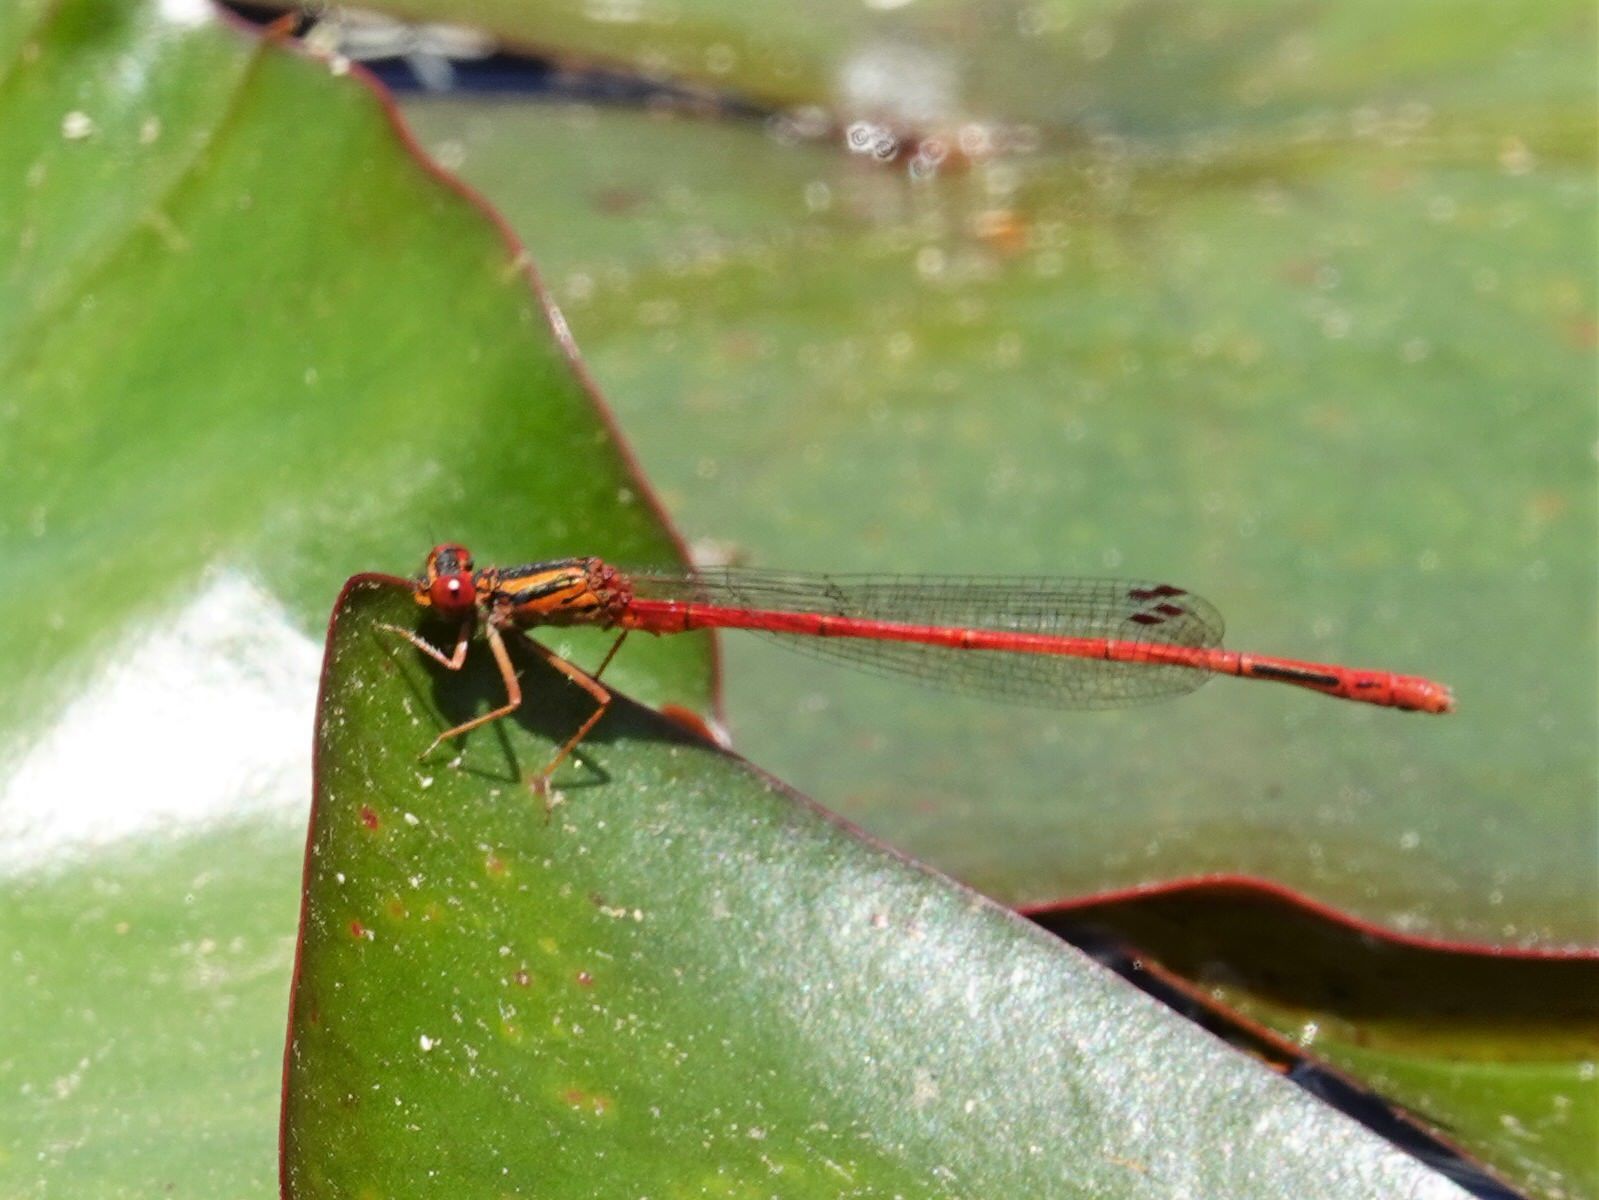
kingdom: Animalia
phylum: Arthropoda
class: Insecta
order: Odonata
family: Coenagrionidae
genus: Xanthocnemis
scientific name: Xanthocnemis zealandica
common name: Common redcoat damselfly
